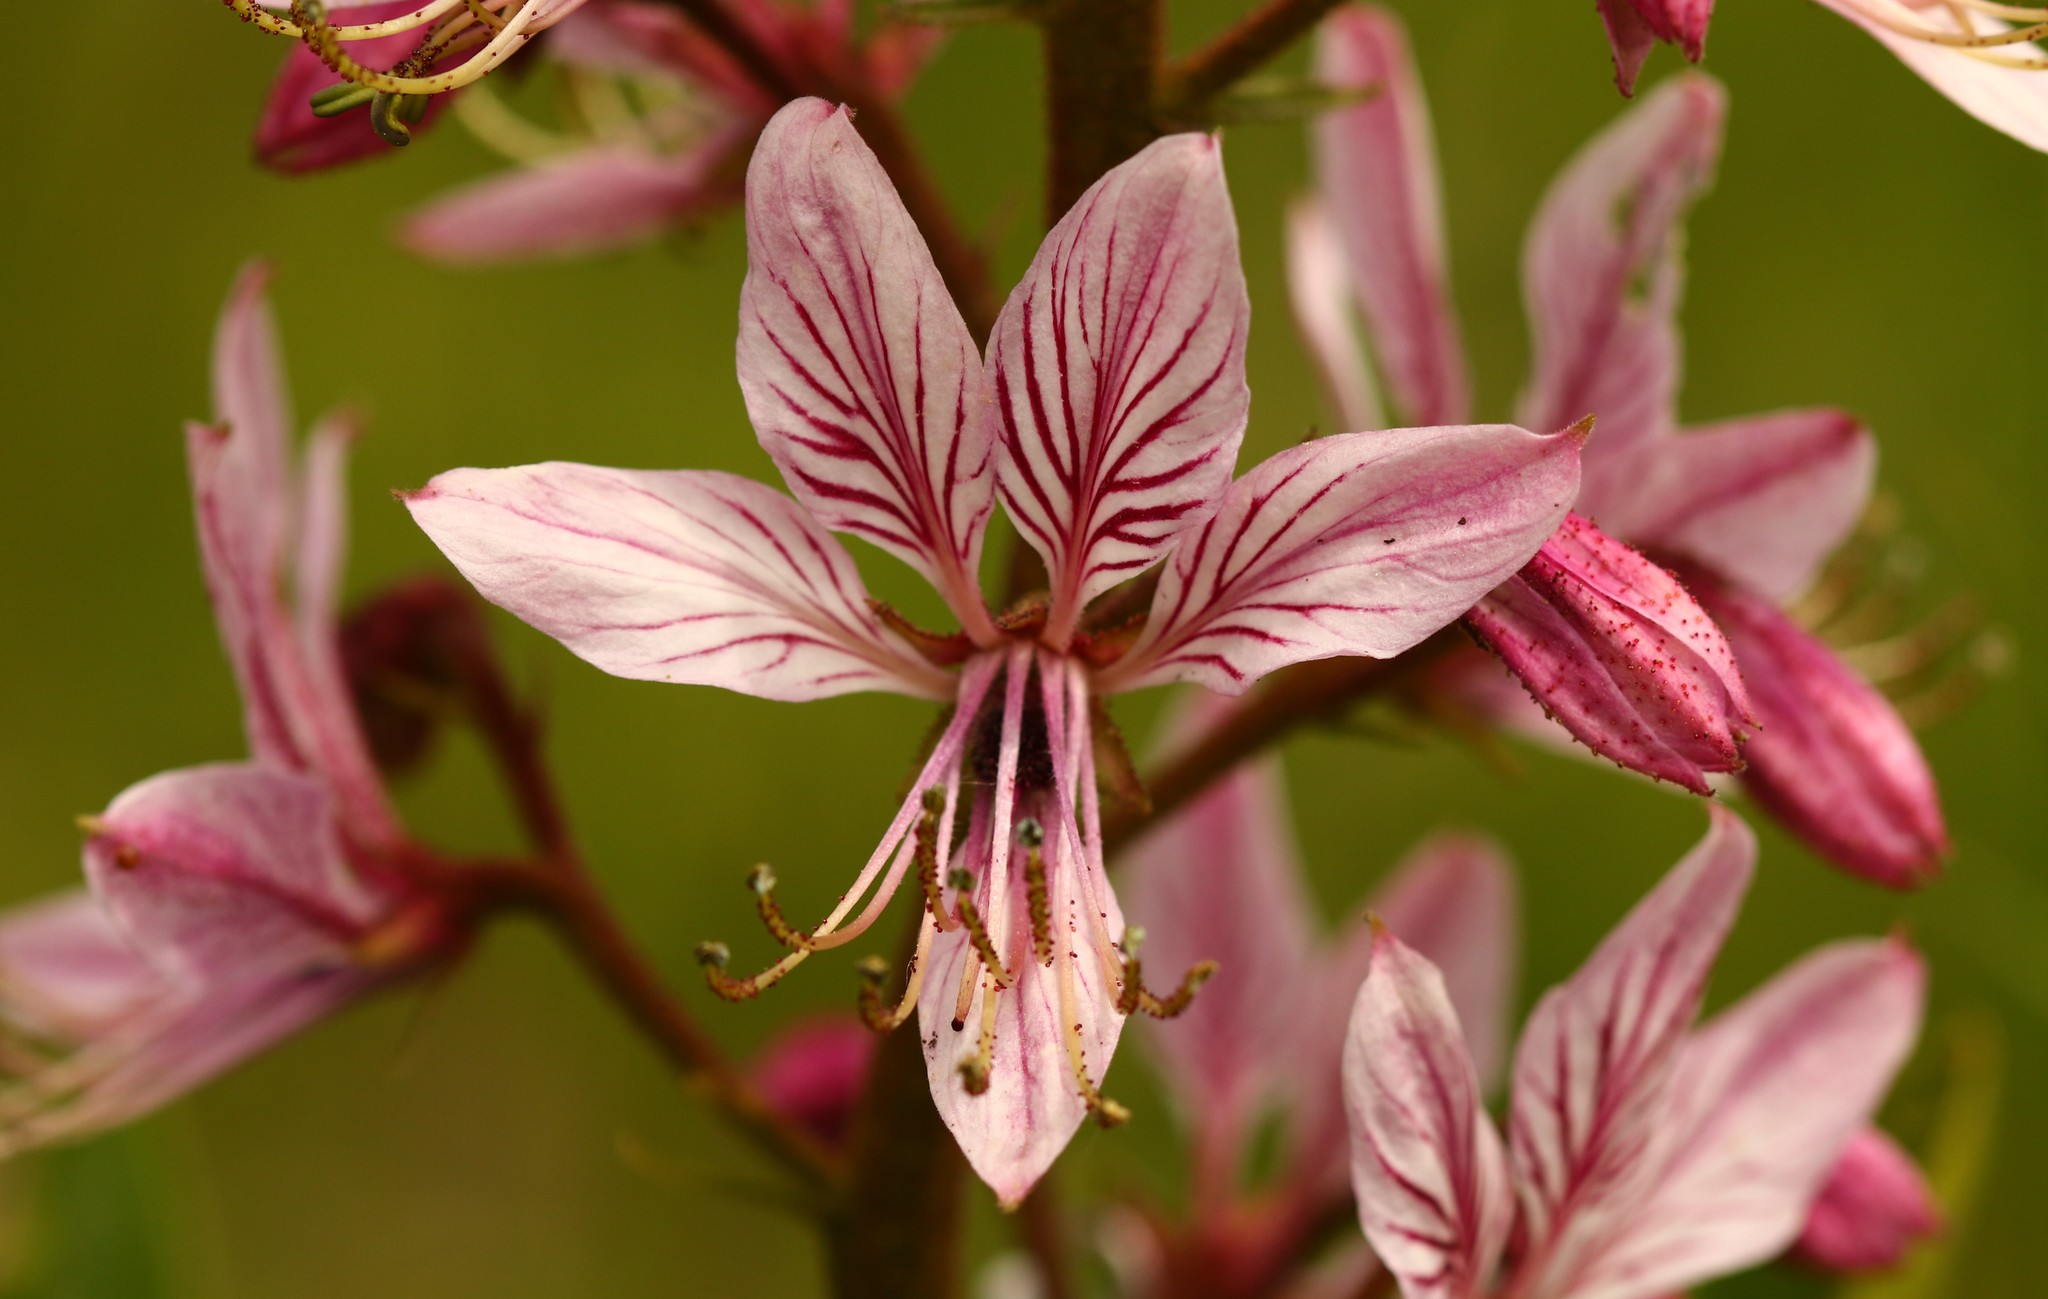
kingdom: Plantae
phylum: Tracheophyta
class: Magnoliopsida
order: Sapindales
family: Rutaceae
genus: Dictamnus
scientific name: Dictamnus albus
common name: Gasplant
